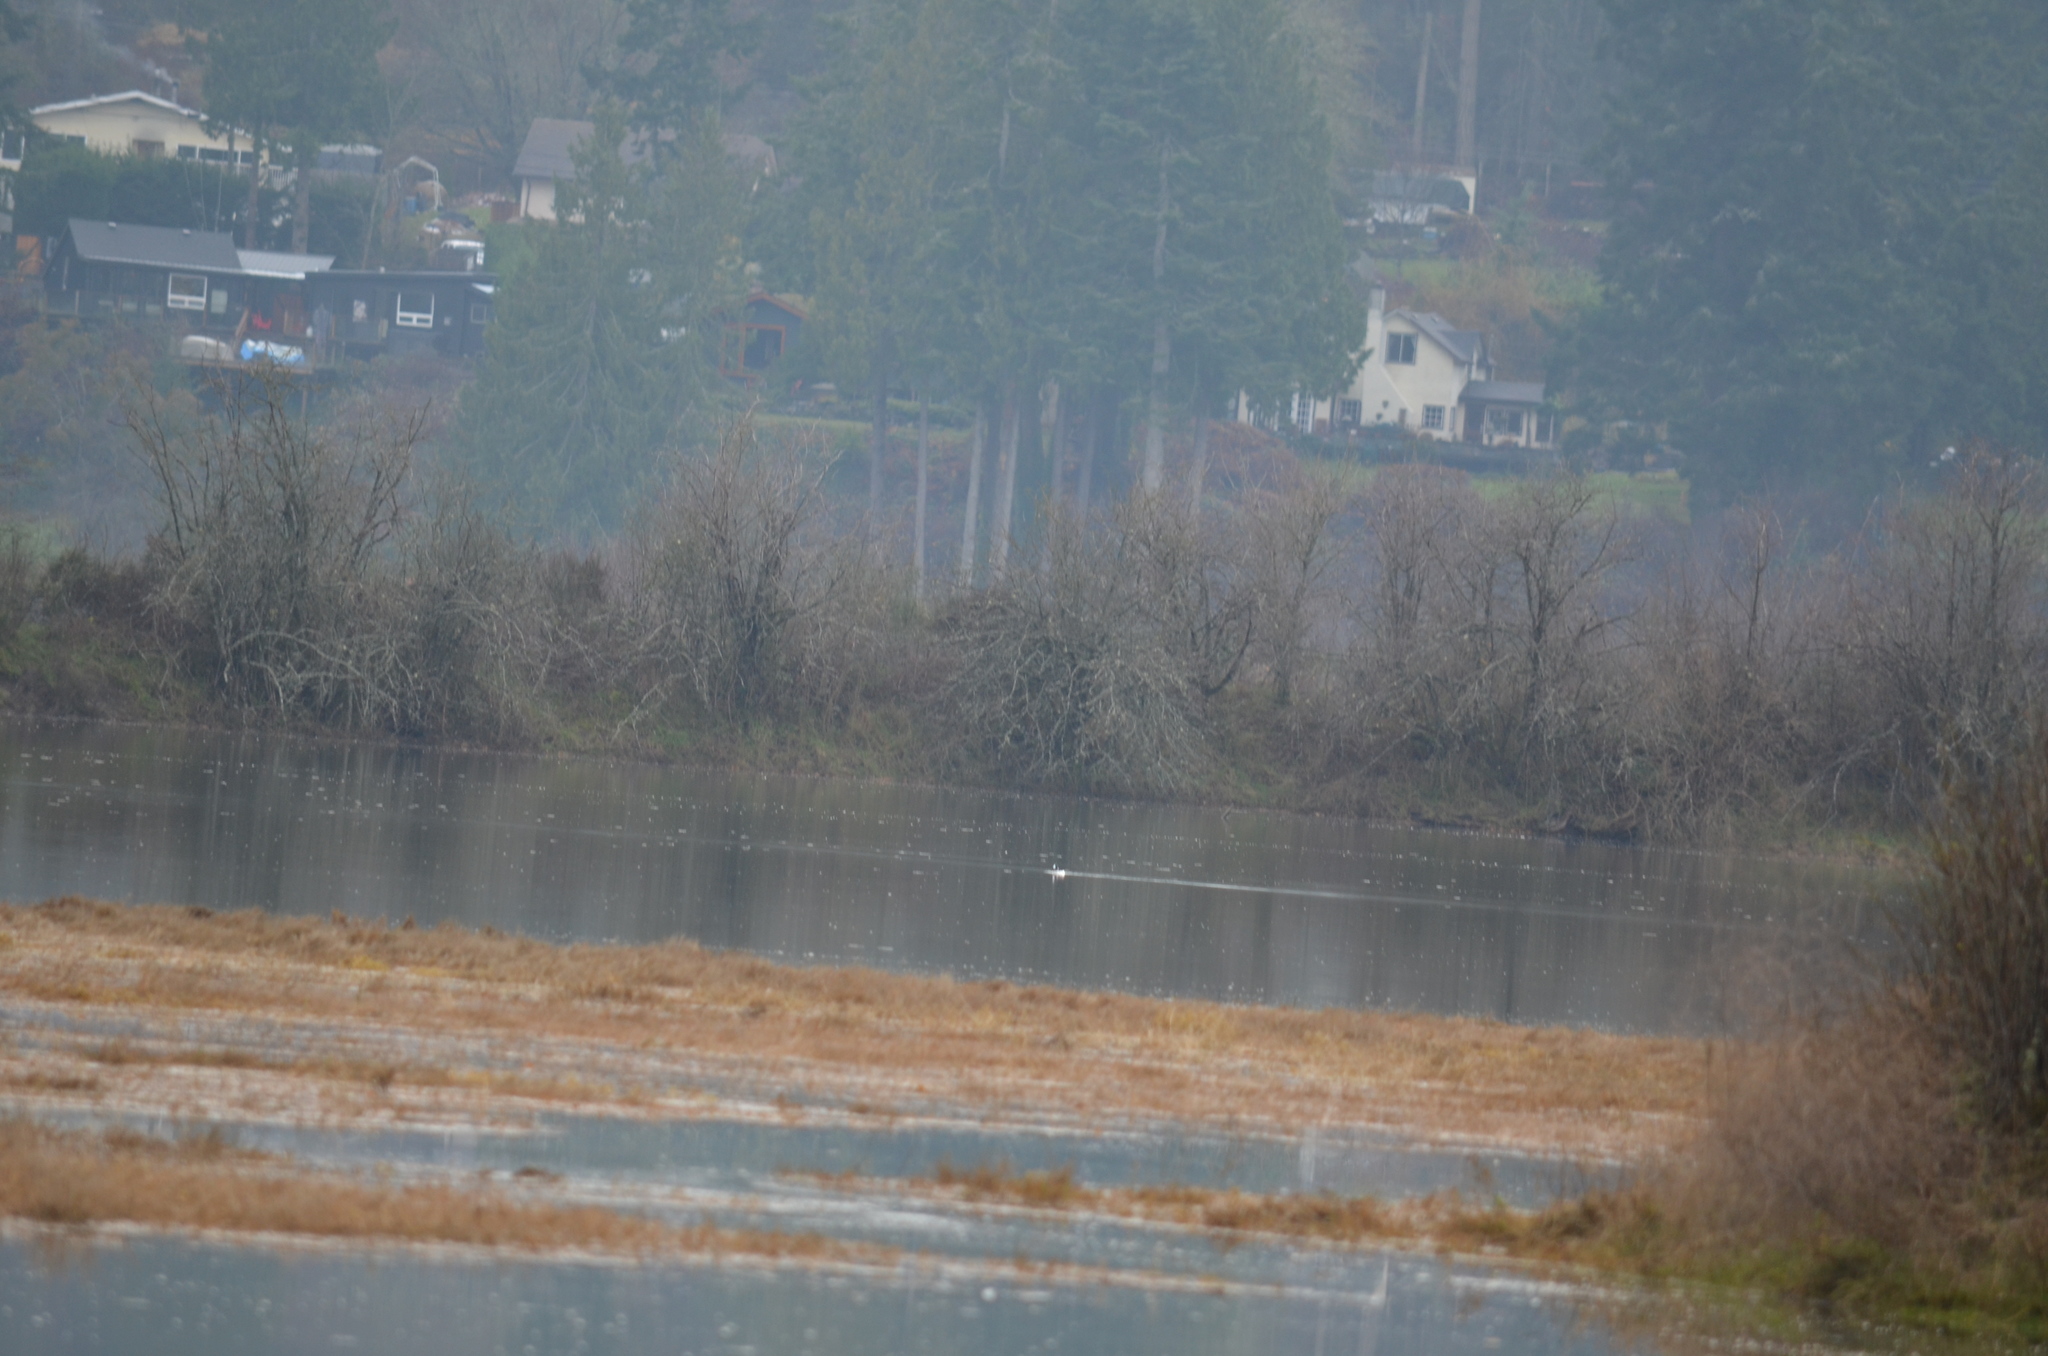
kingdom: Animalia
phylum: Chordata
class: Aves
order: Anseriformes
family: Anatidae
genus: Bucephala
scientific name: Bucephala albeola
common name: Bufflehead
